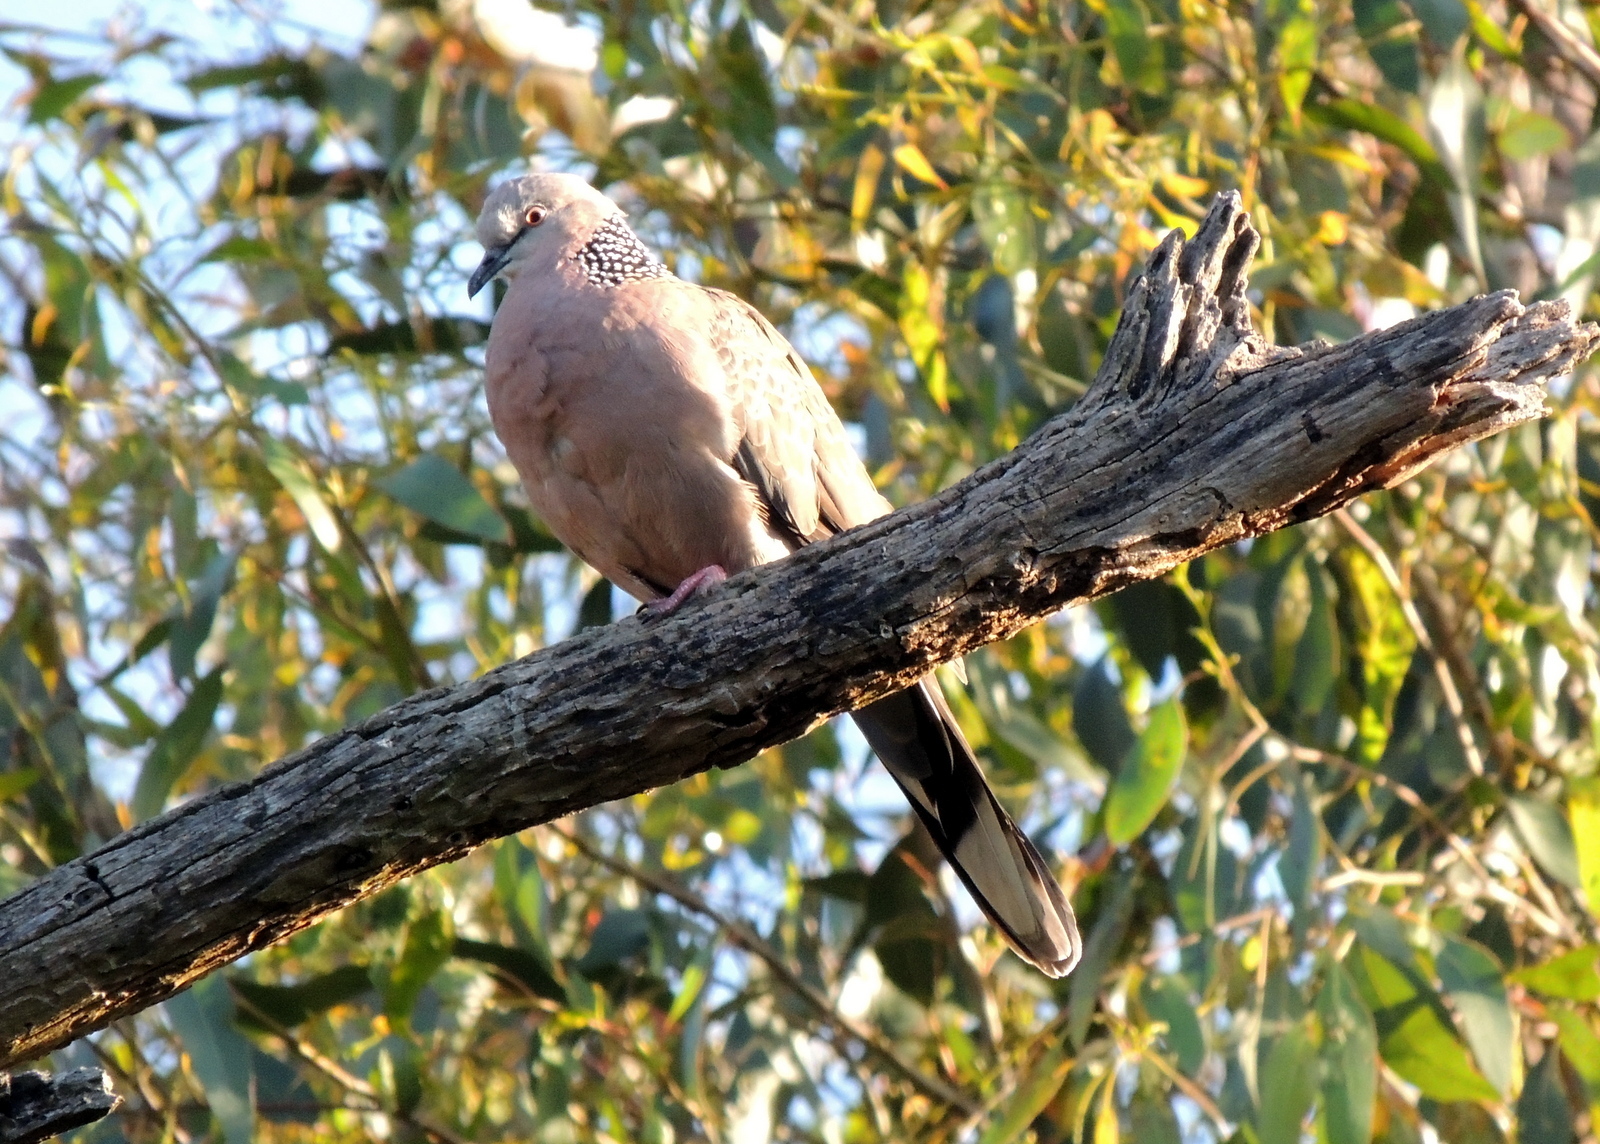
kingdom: Animalia
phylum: Chordata
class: Aves
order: Columbiformes
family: Columbidae
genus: Spilopelia
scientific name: Spilopelia chinensis
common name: Spotted dove
